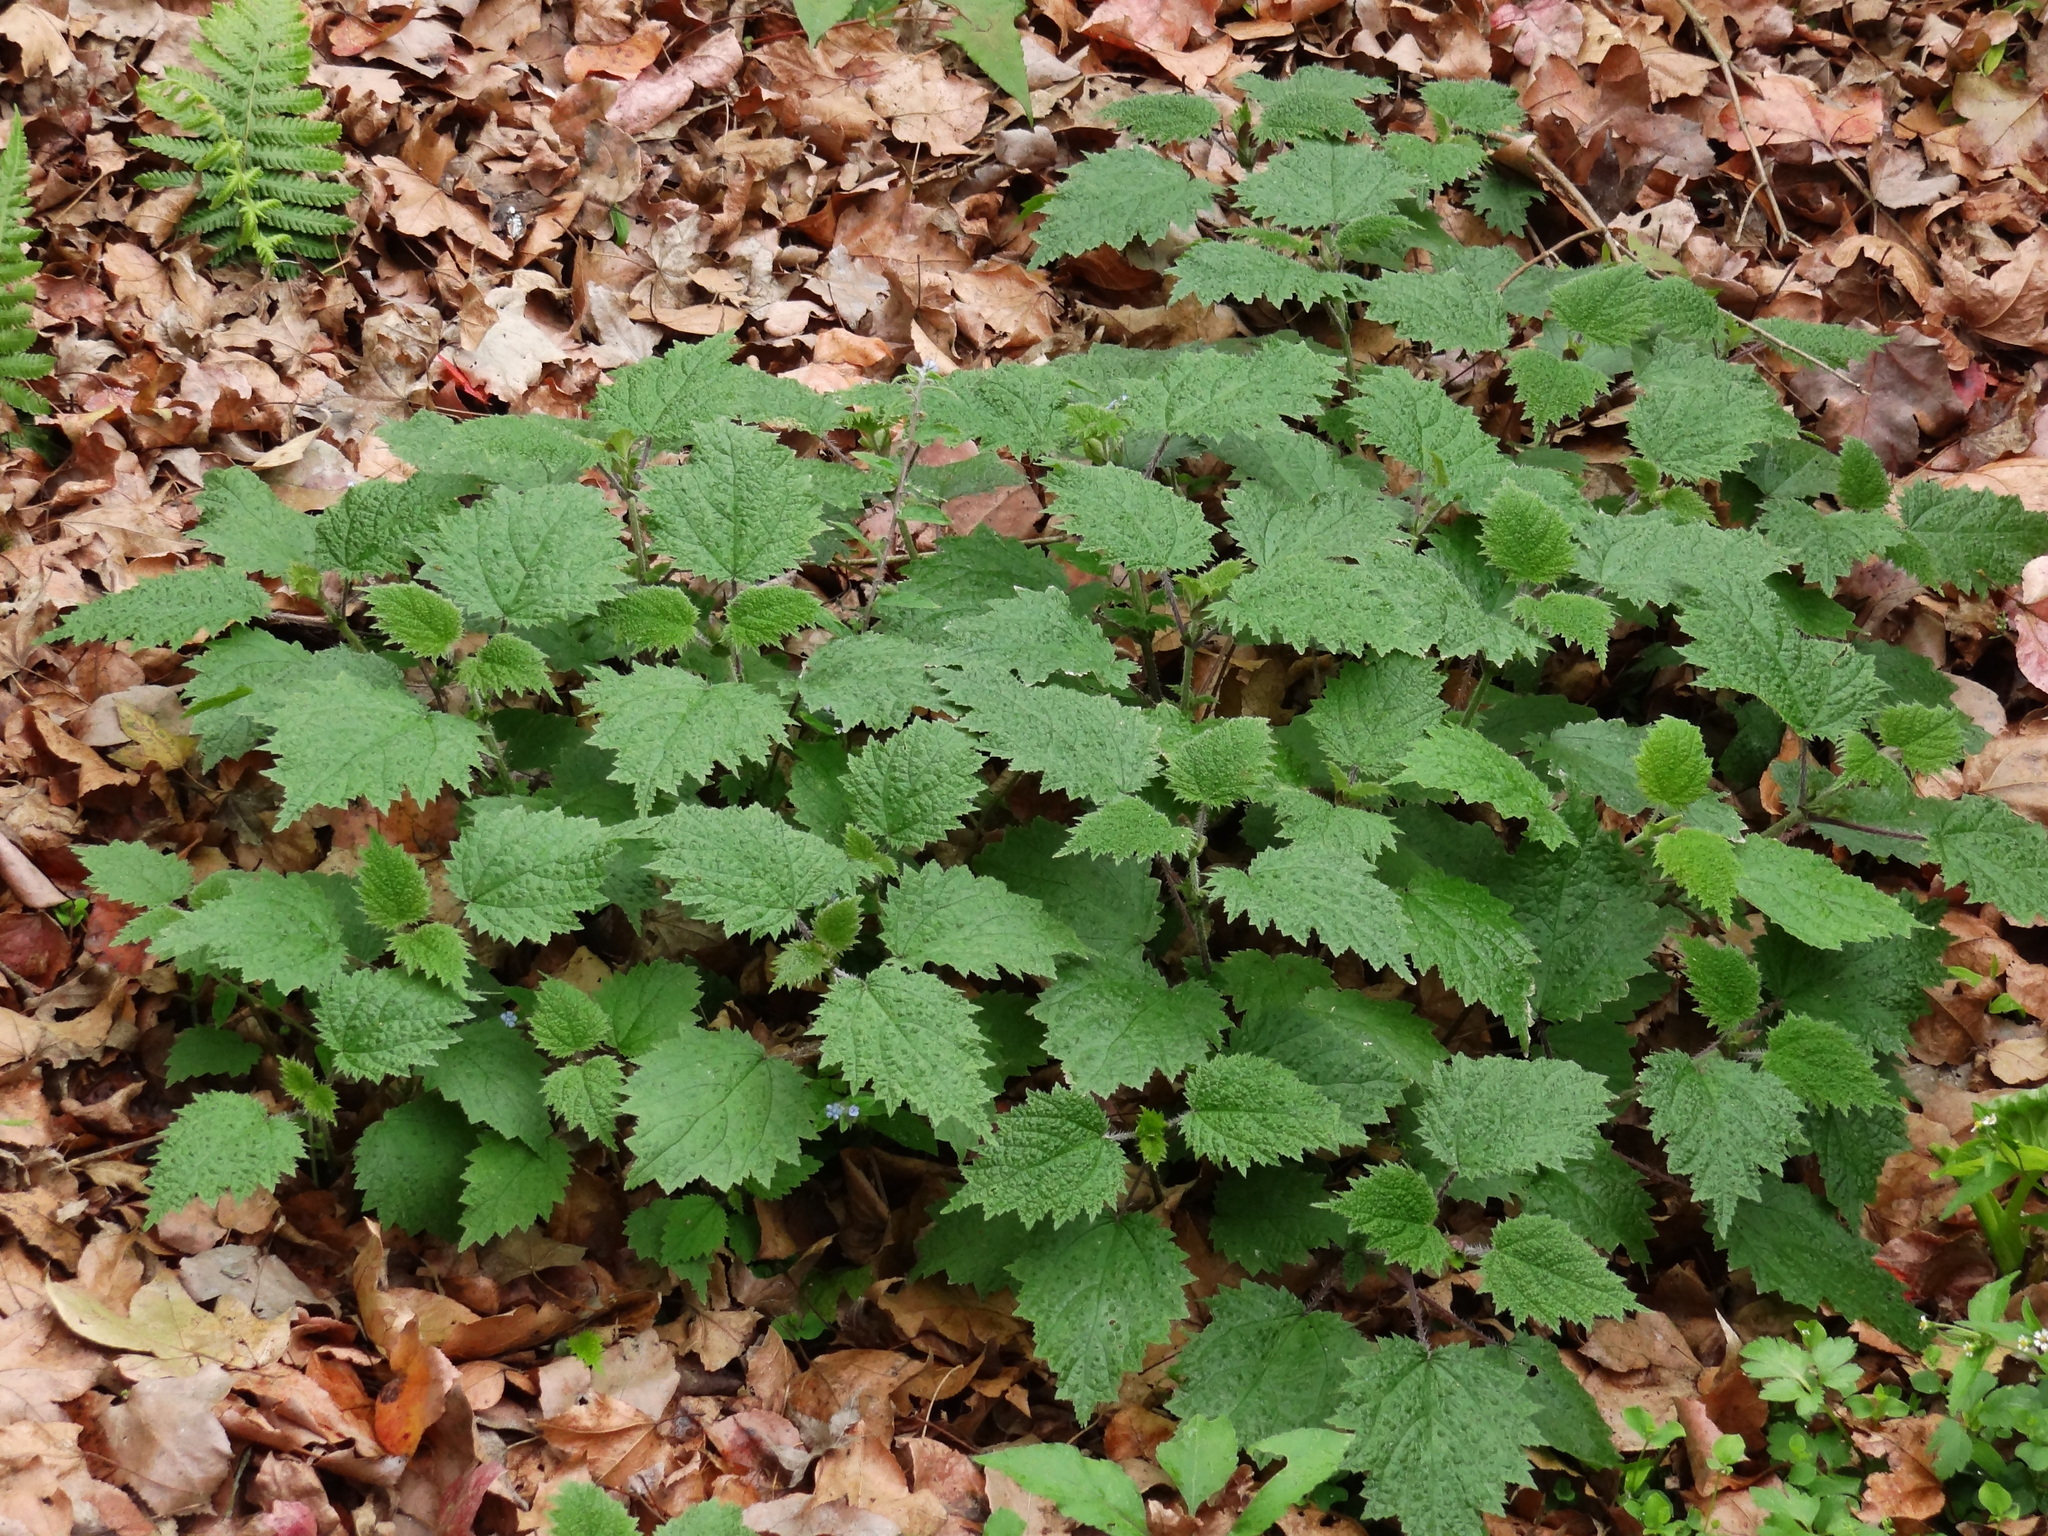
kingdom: Plantae
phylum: Tracheophyta
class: Magnoliopsida
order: Rosales
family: Urticaceae
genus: Urtica
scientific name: Urtica thunbergiana
